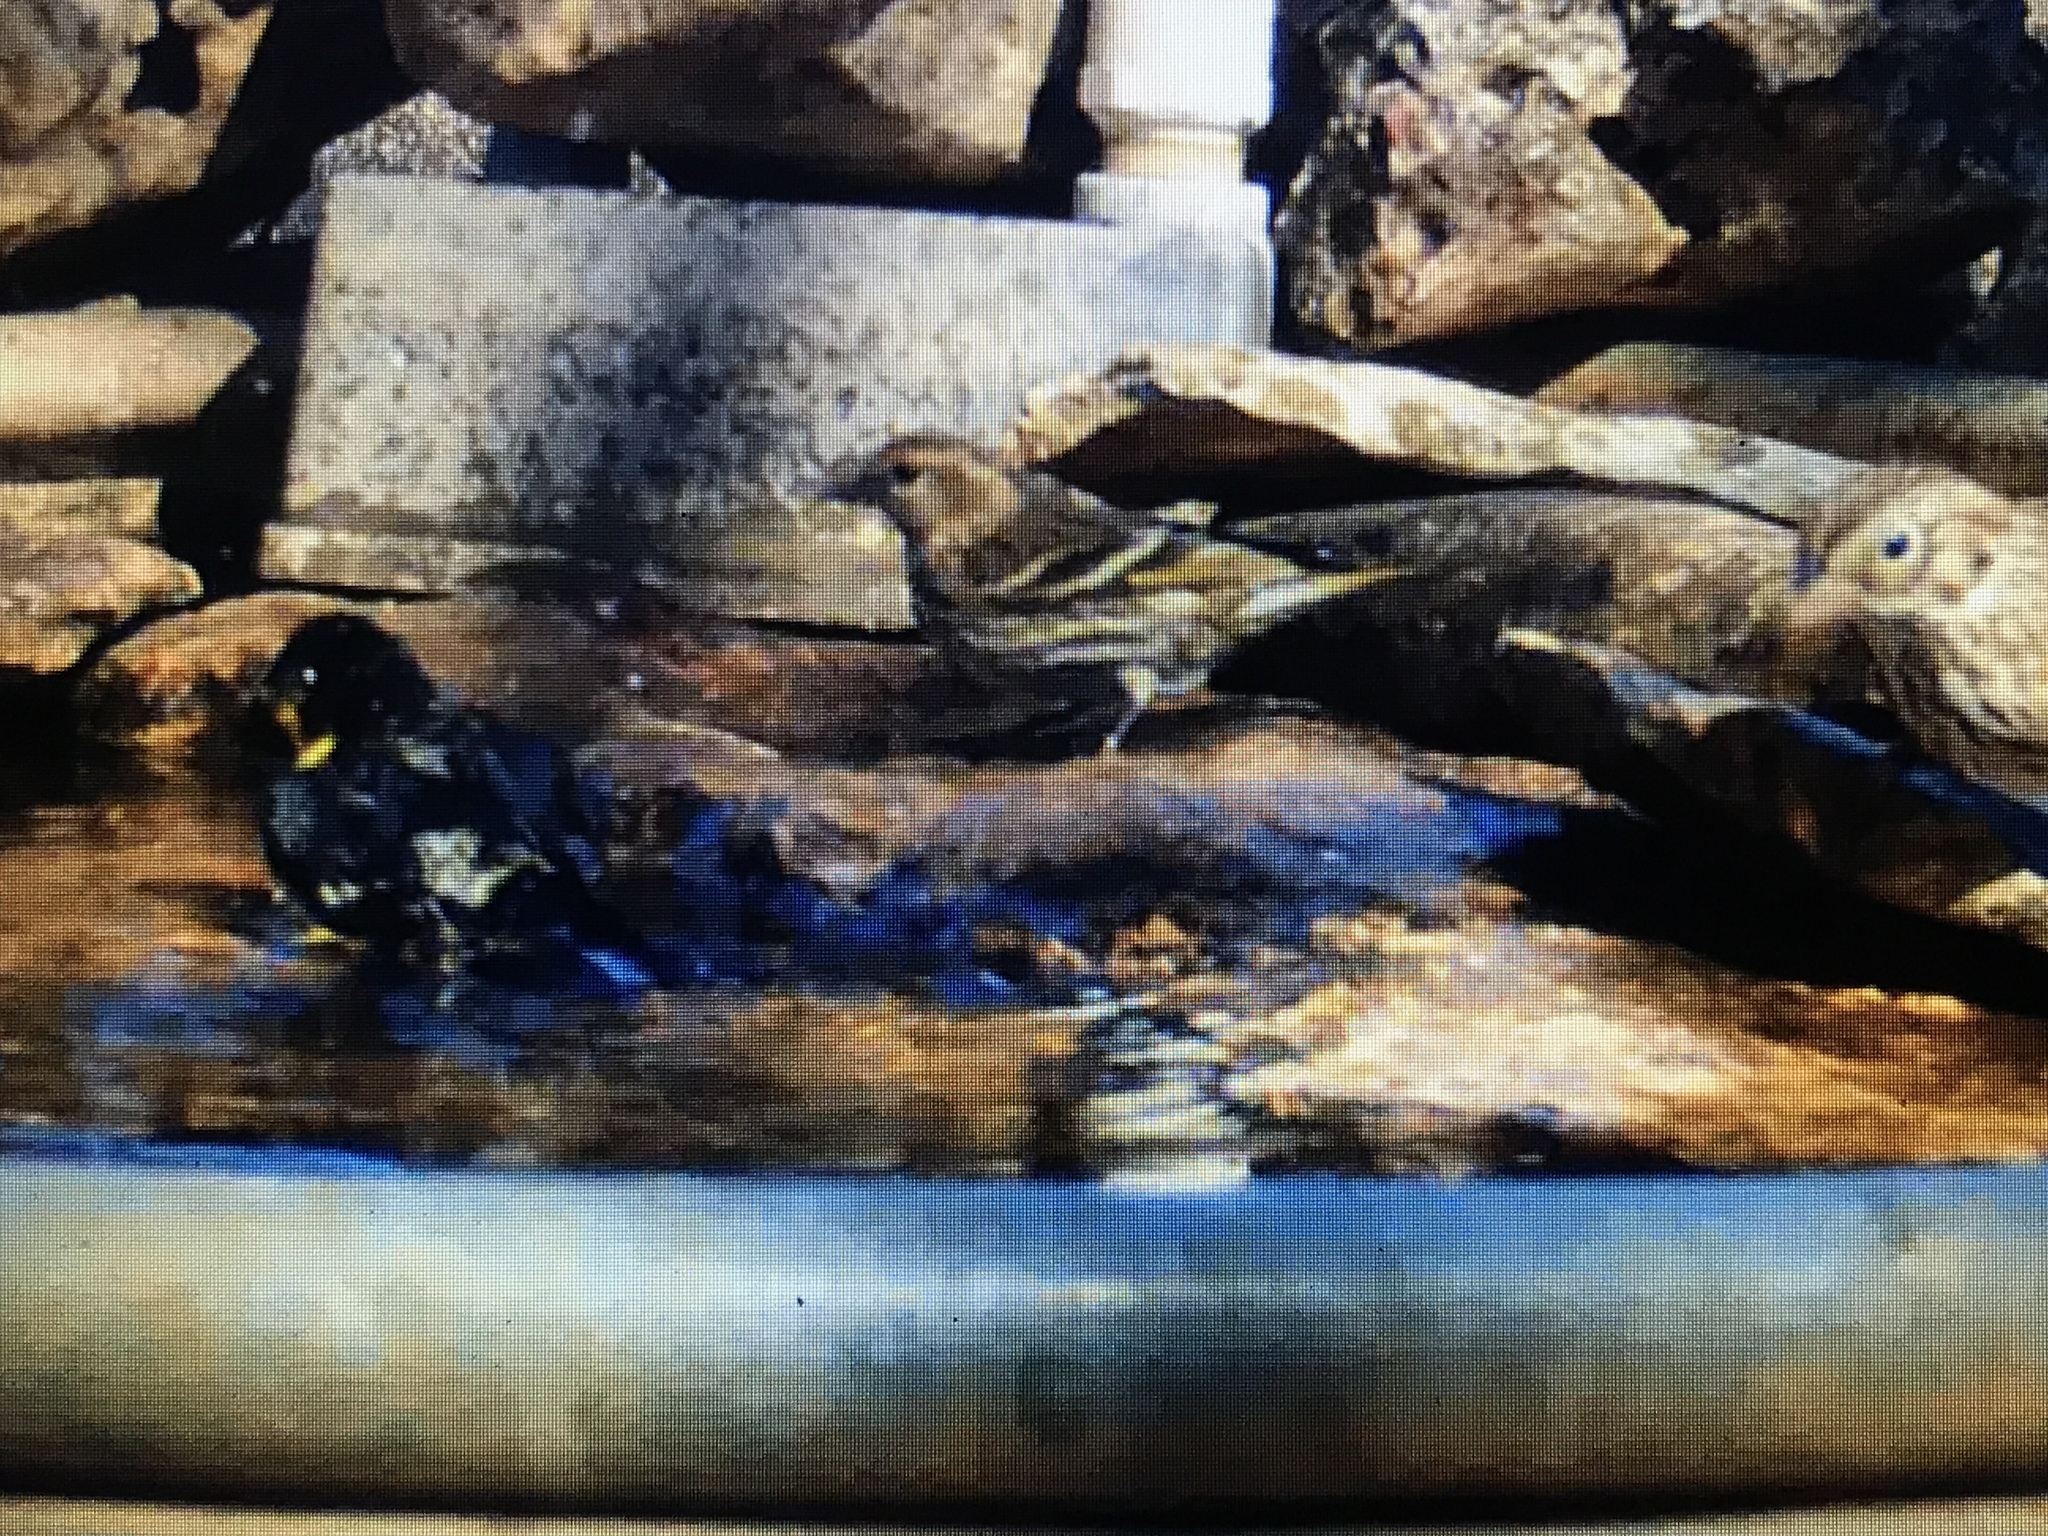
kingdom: Animalia
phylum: Chordata
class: Aves
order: Passeriformes
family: Fringillidae
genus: Spinus
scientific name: Spinus pinus
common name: Pine siskin
